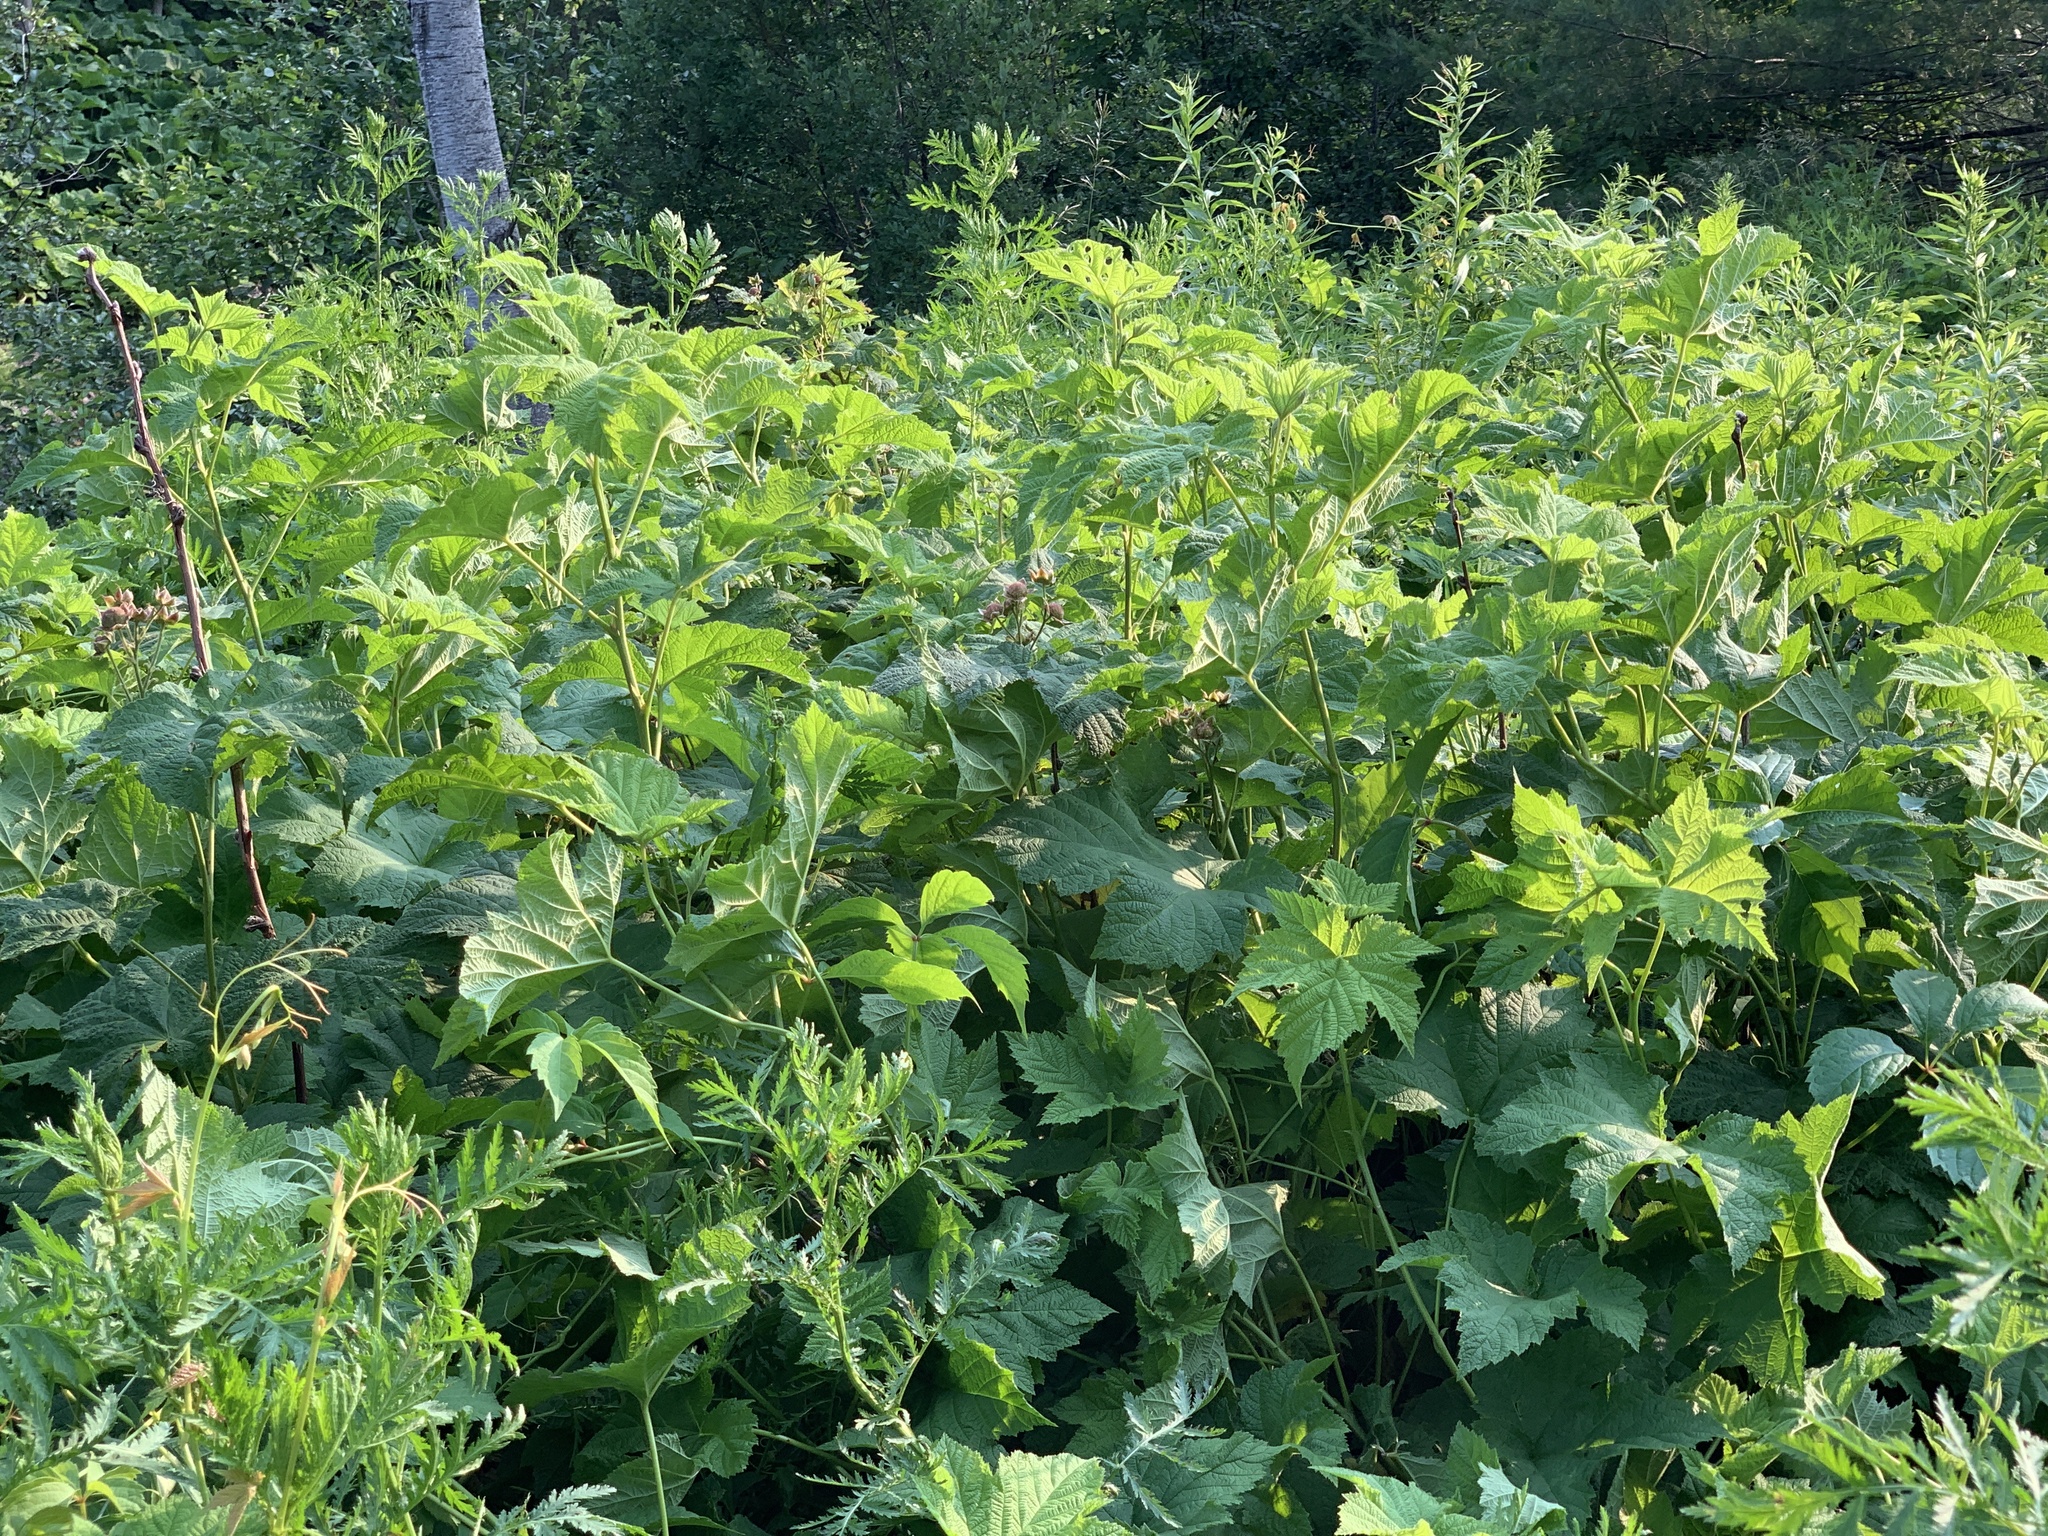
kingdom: Plantae
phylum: Tracheophyta
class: Magnoliopsida
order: Rosales
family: Rosaceae
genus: Rubus
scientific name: Rubus parviflorus
